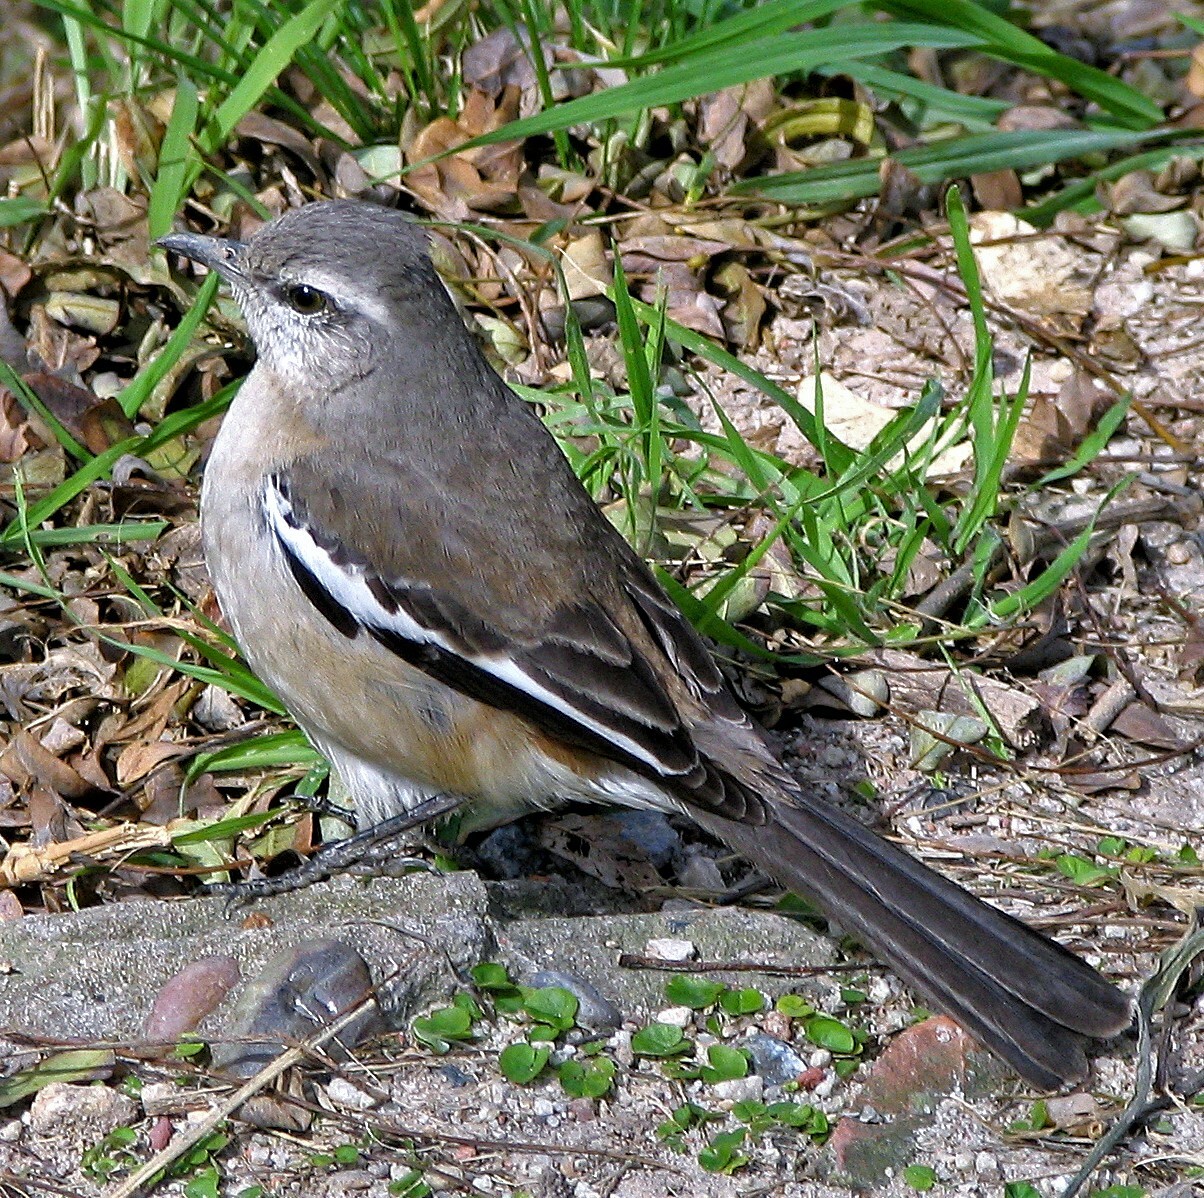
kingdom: Animalia
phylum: Chordata
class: Aves
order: Passeriformes
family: Mimidae
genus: Mimus
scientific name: Mimus triurus
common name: White-banded mockingbird
